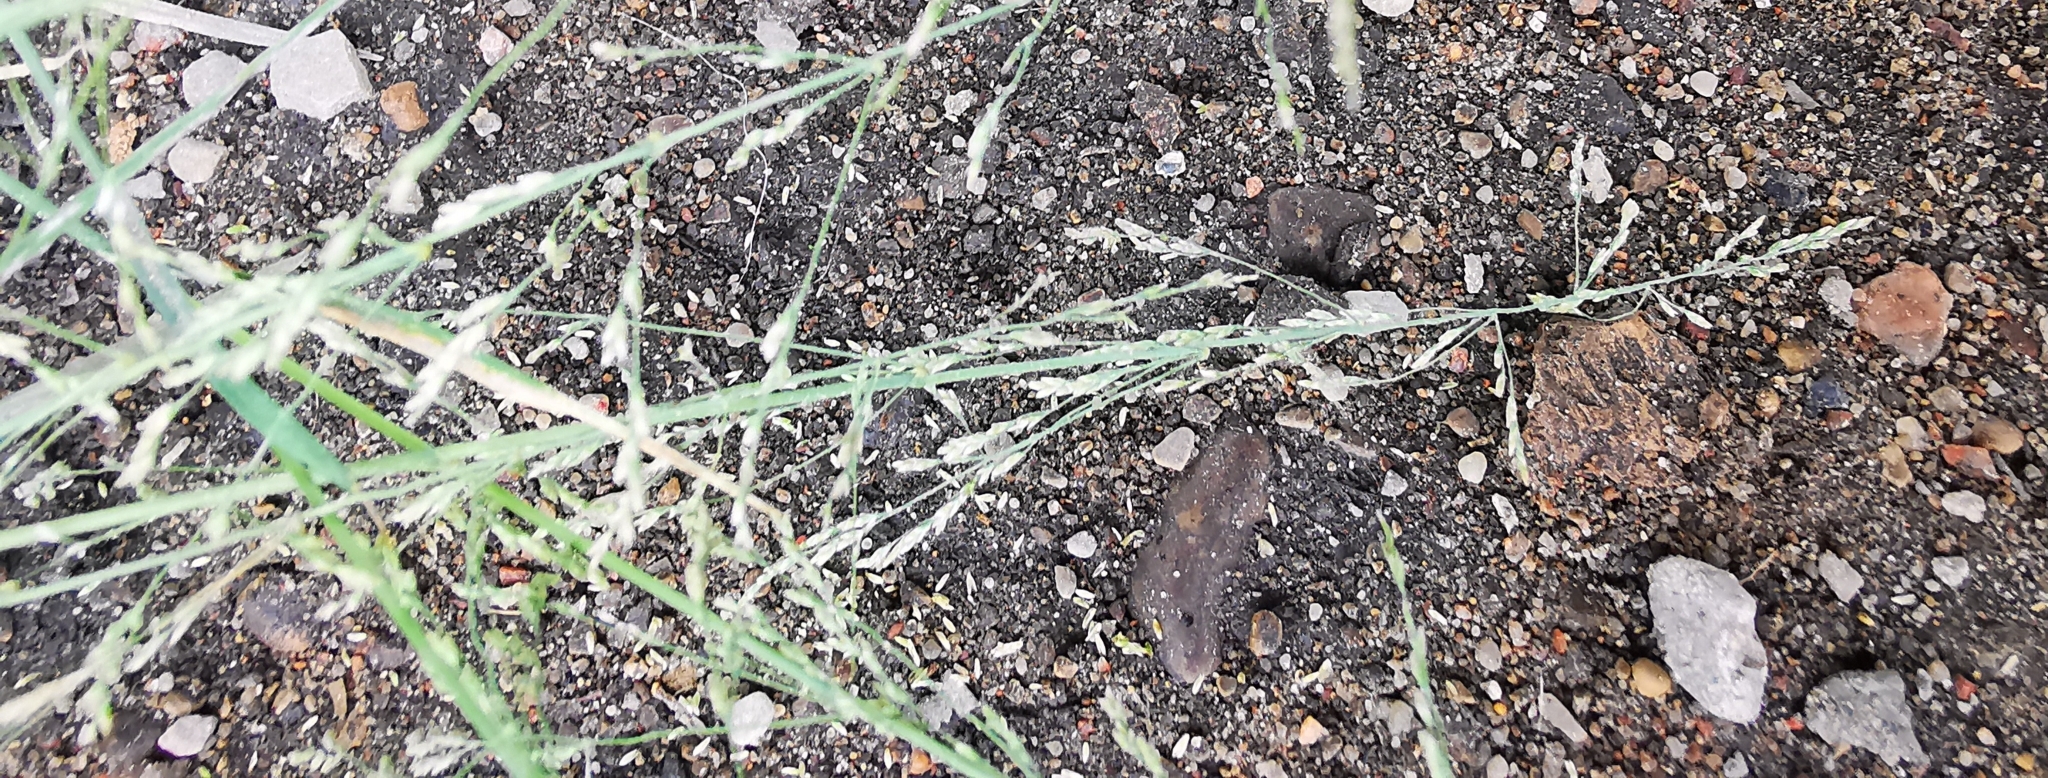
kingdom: Plantae
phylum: Tracheophyta
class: Liliopsida
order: Poales
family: Poaceae
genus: Puccinellia
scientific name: Puccinellia distans
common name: Weeping alkaligrass
